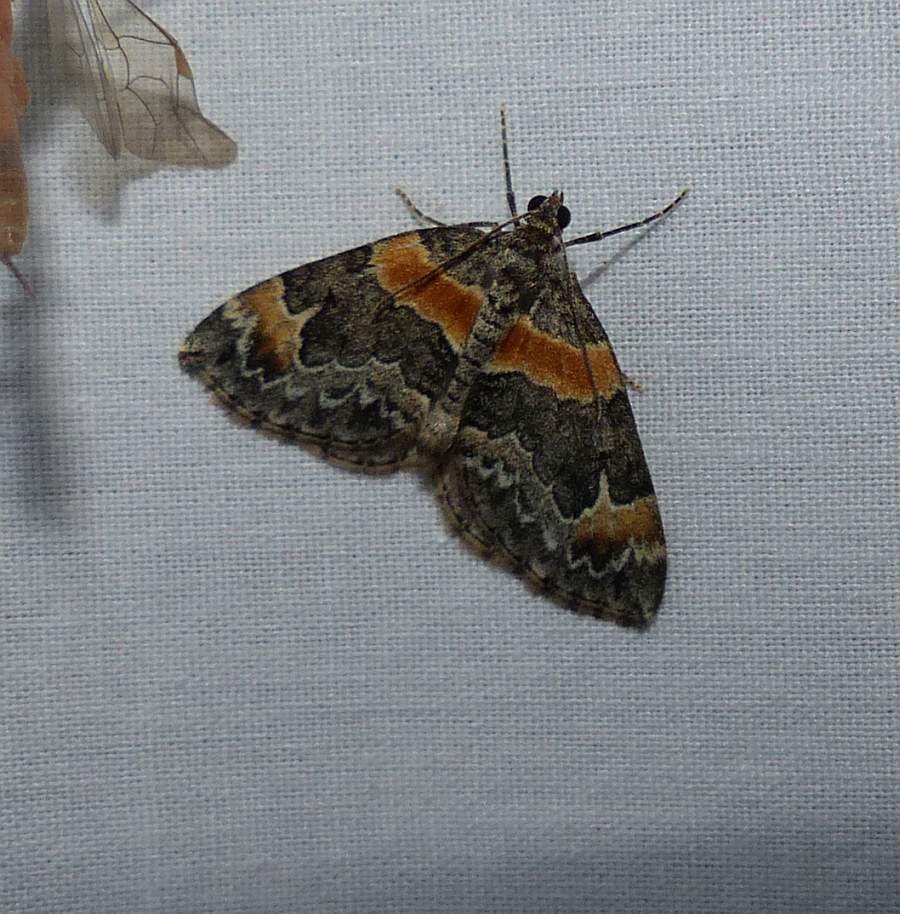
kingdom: Animalia
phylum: Arthropoda
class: Insecta
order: Lepidoptera
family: Geometridae
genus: Dysstroma
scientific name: Dysstroma hersiliata
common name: Orange-barred carpet
